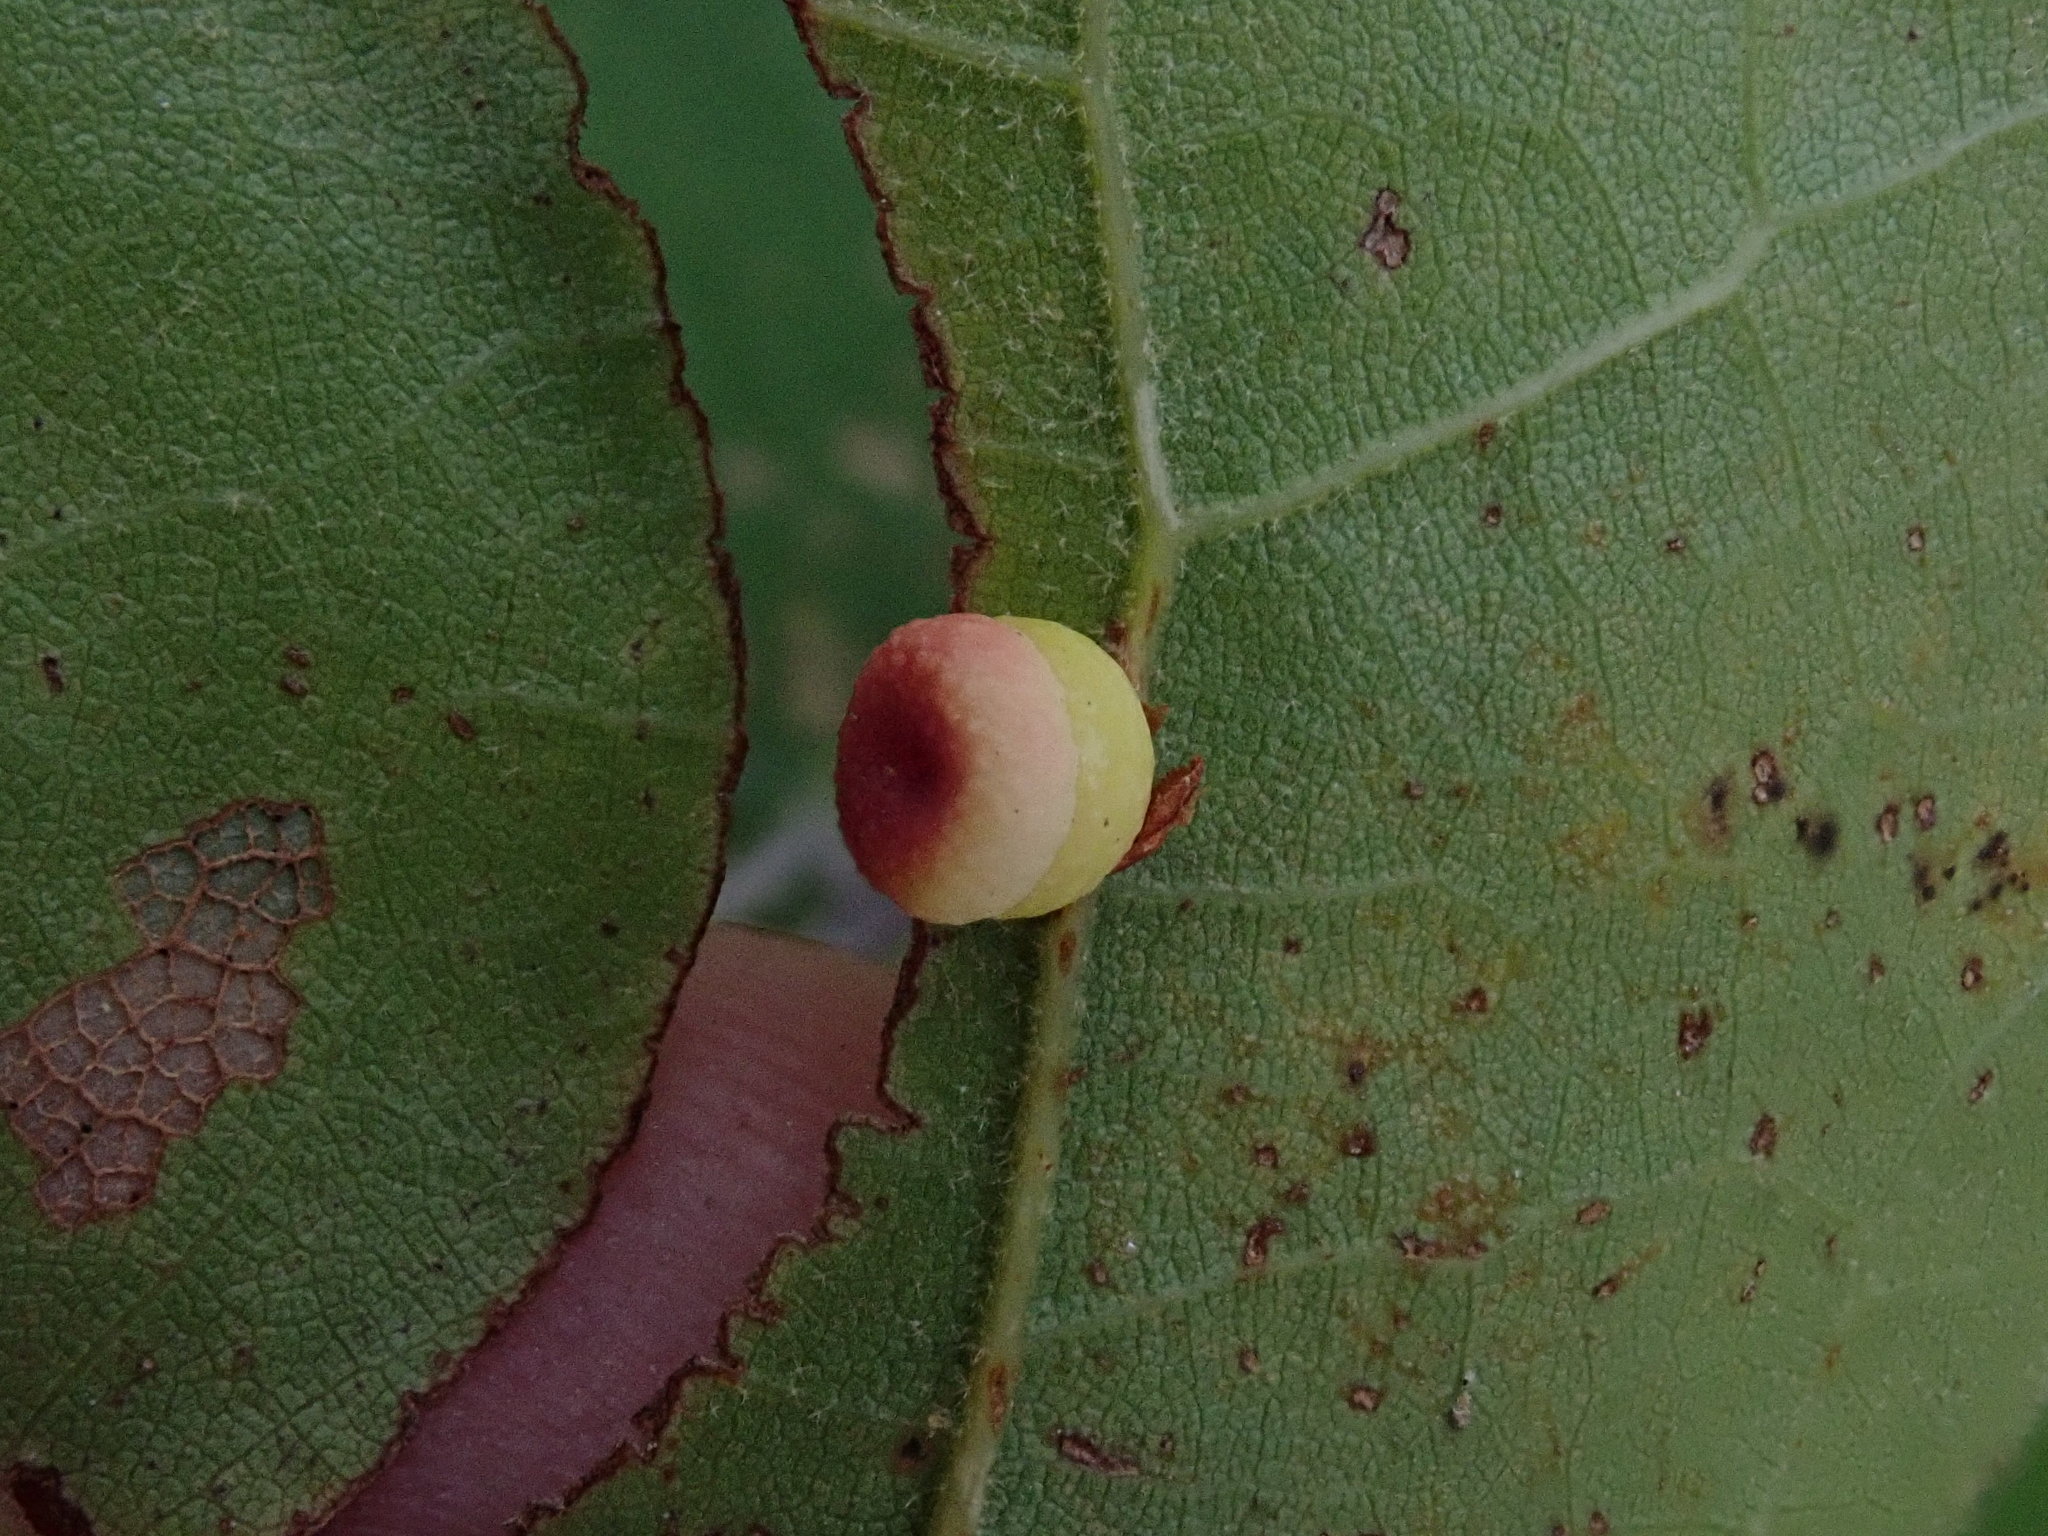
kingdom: Animalia
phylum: Arthropoda
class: Insecta
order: Hymenoptera
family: Cynipidae
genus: Kokkocynips
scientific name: Kokkocynips rileyi
